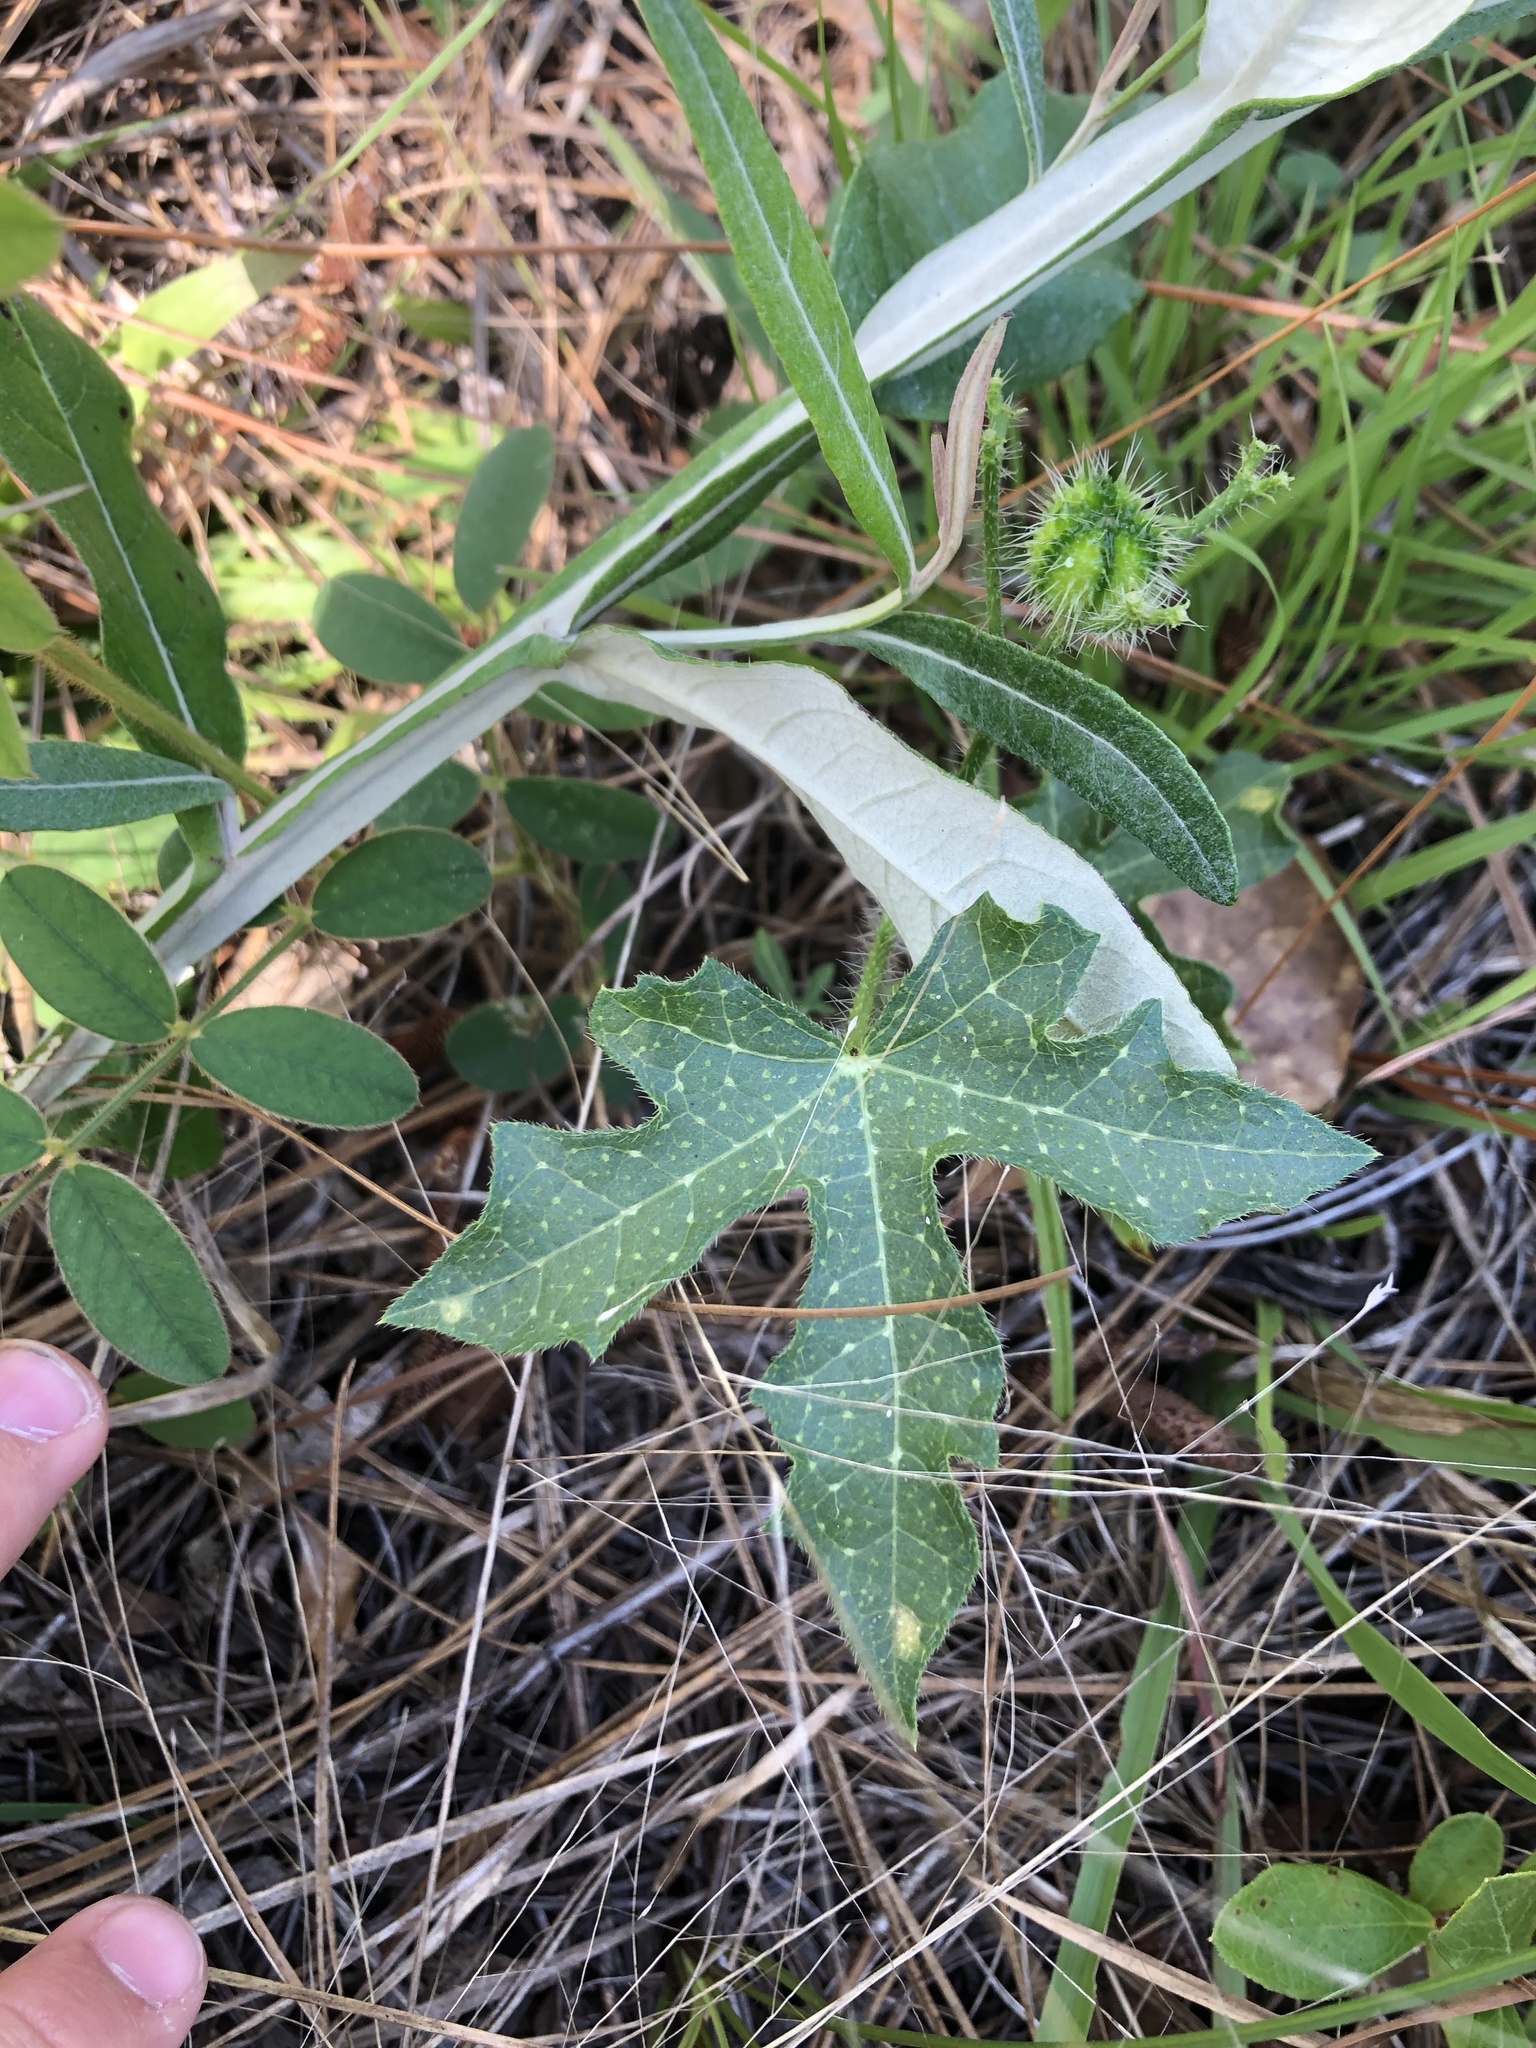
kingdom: Plantae
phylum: Tracheophyta
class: Magnoliopsida
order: Malpighiales
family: Euphorbiaceae
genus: Cnidoscolus
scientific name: Cnidoscolus stimulosus
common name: Bull-nettle
